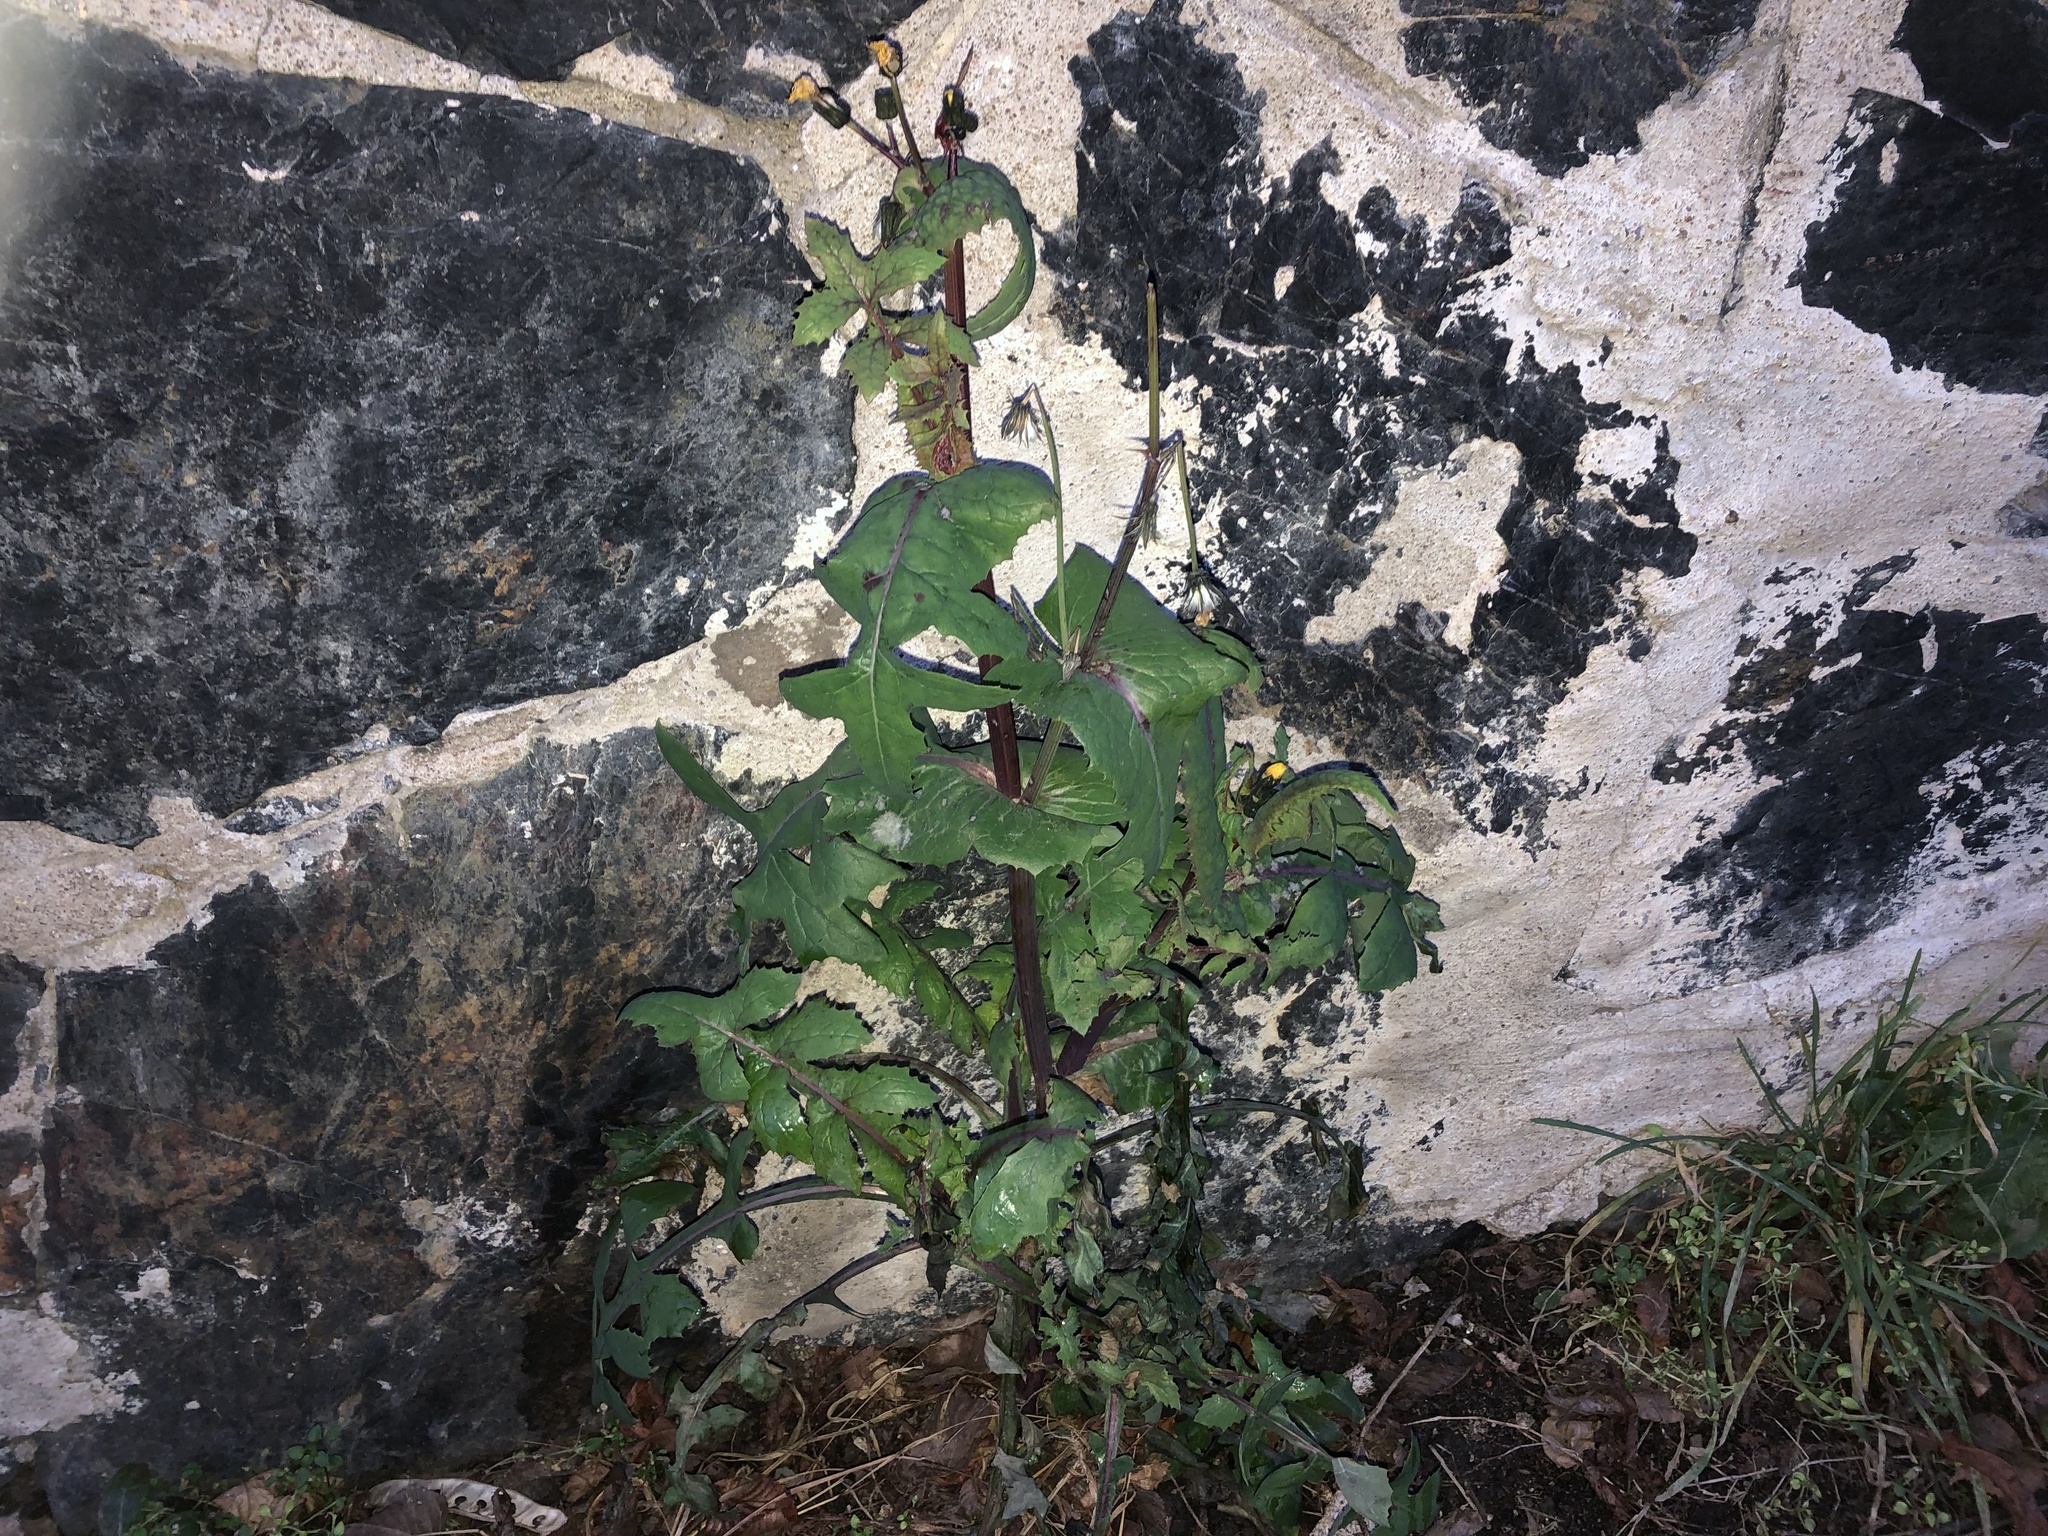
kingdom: Plantae
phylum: Tracheophyta
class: Magnoliopsida
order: Asterales
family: Asteraceae
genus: Sonchus
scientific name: Sonchus oleraceus
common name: Common sowthistle
